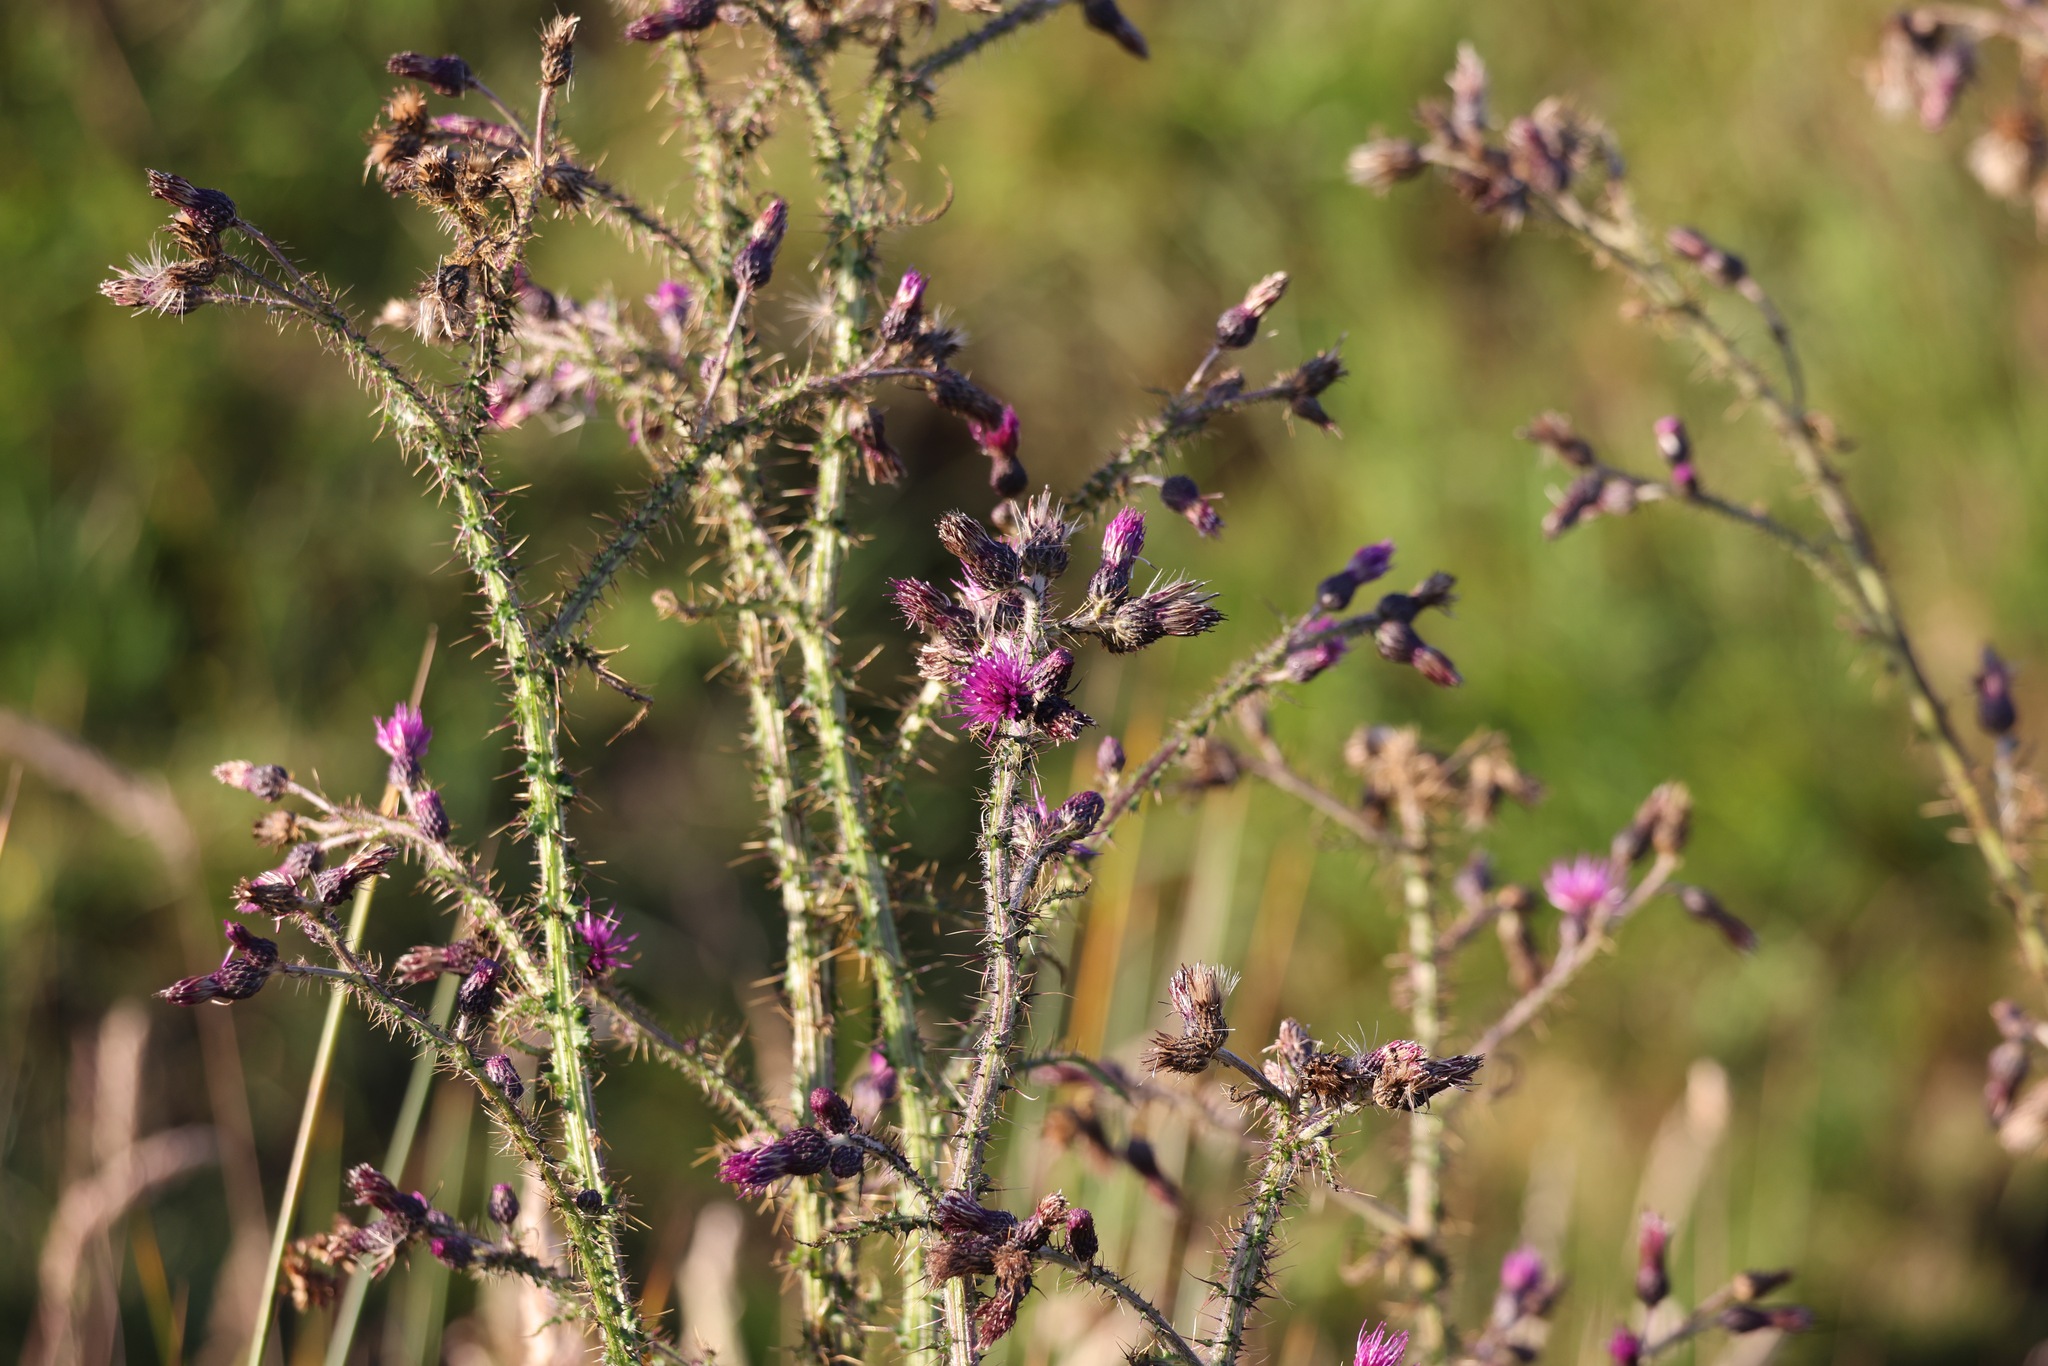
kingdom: Plantae
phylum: Tracheophyta
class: Magnoliopsida
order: Asterales
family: Asteraceae
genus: Cirsium
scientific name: Cirsium palustre
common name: Marsh thistle
